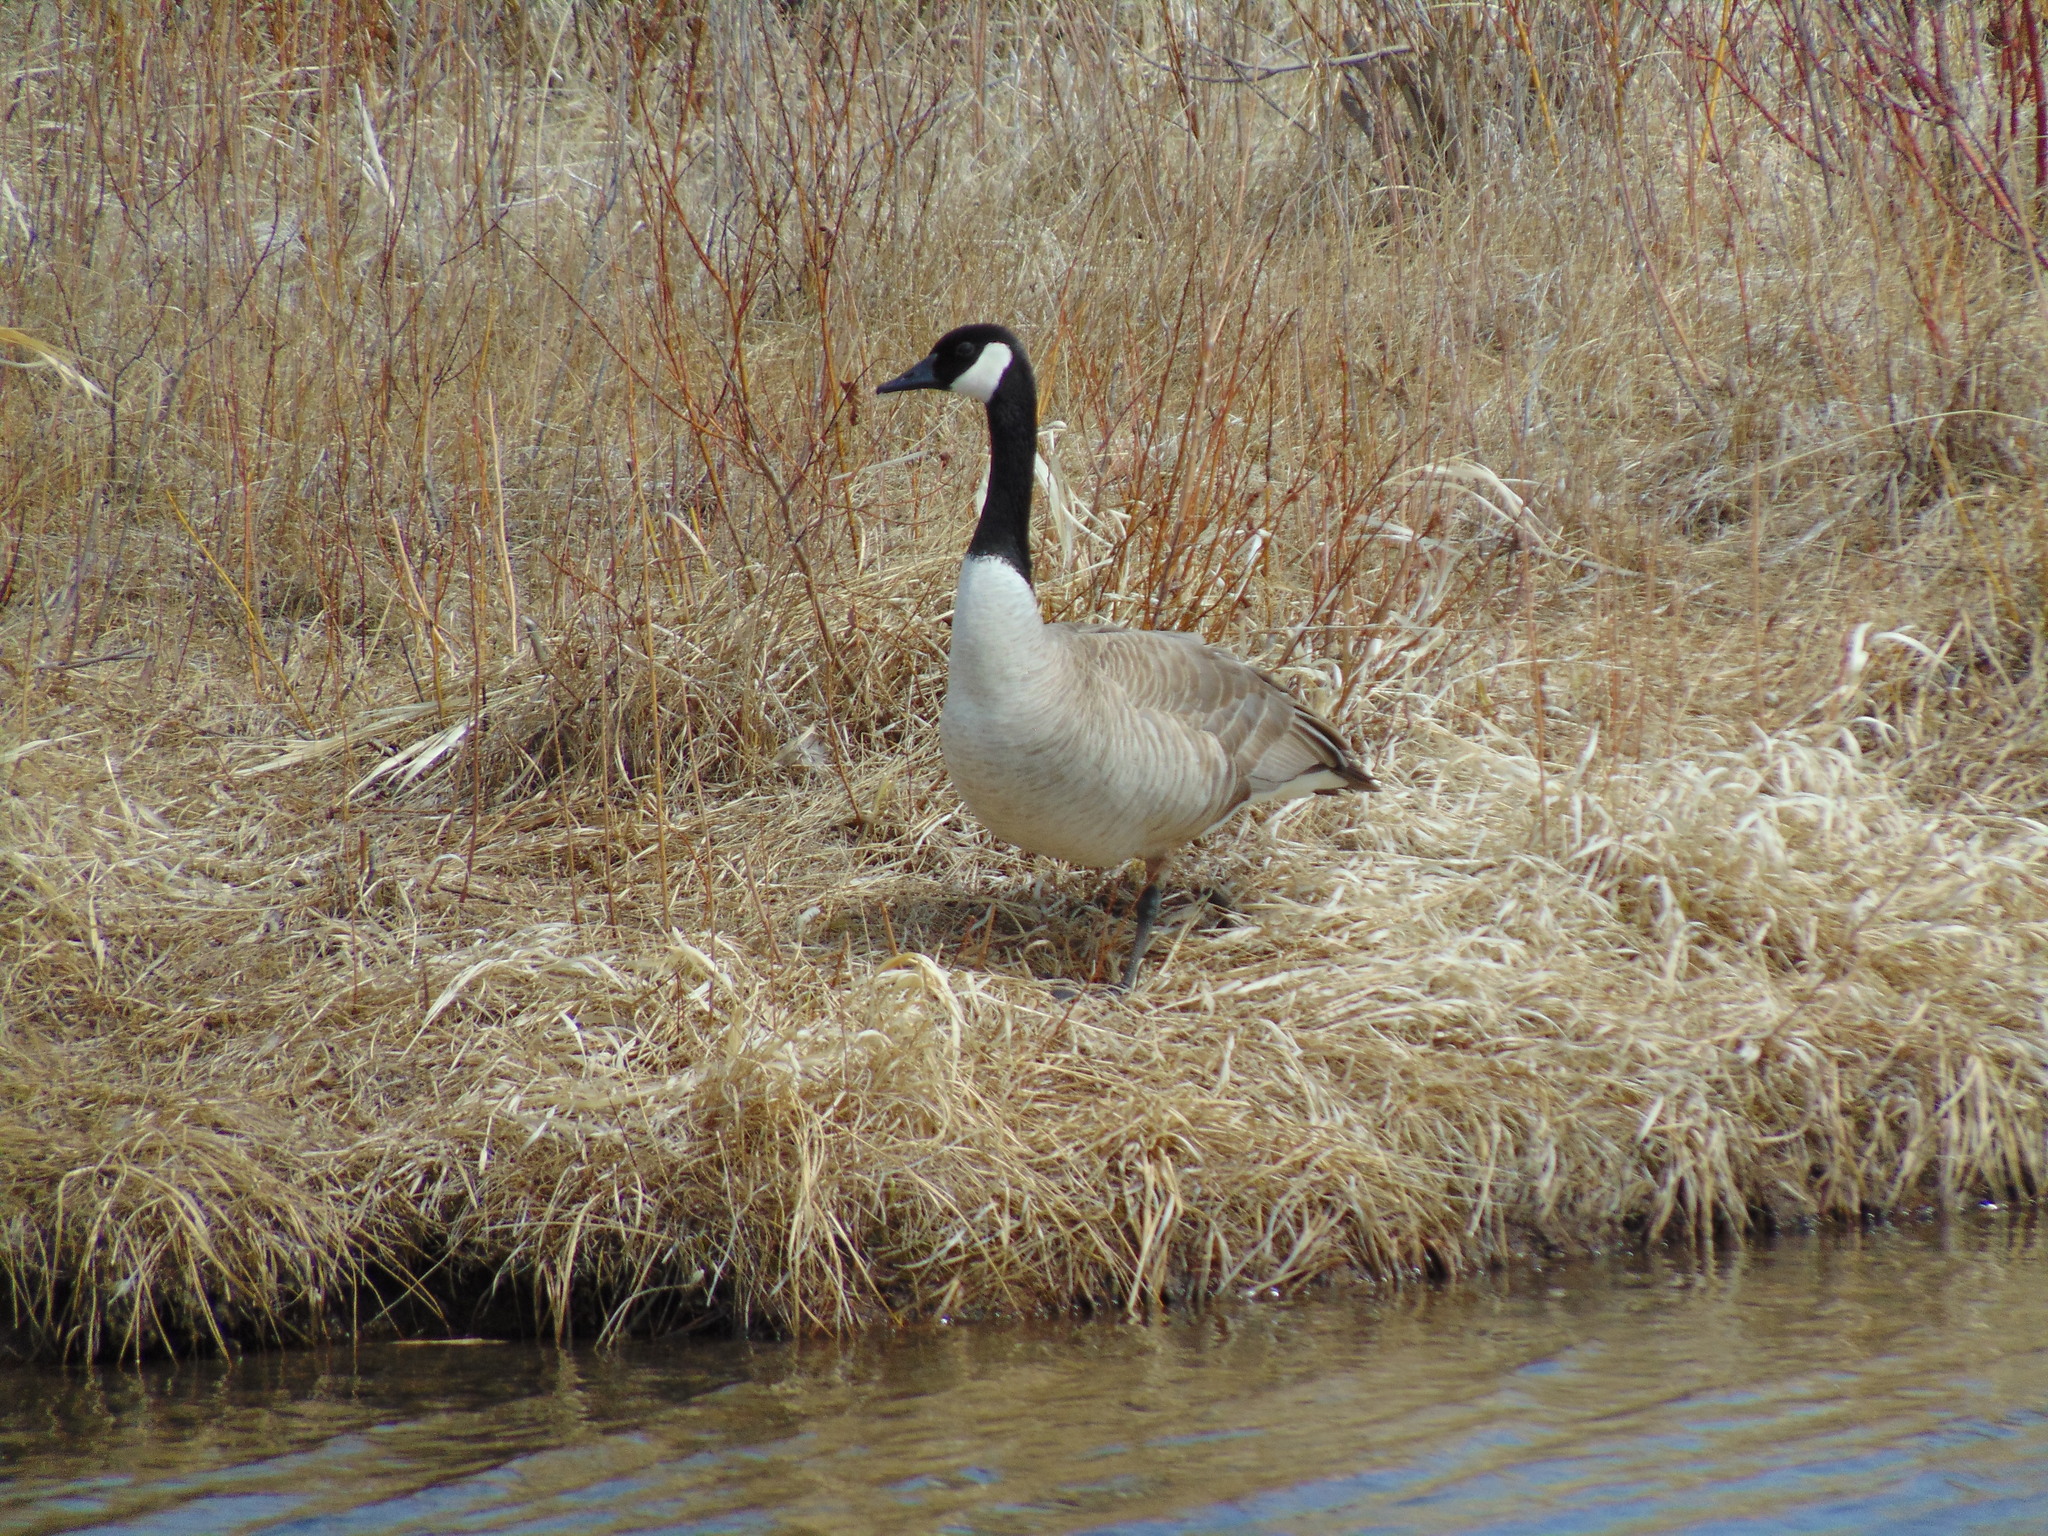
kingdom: Animalia
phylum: Chordata
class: Aves
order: Anseriformes
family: Anatidae
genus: Branta
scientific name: Branta canadensis
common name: Canada goose
